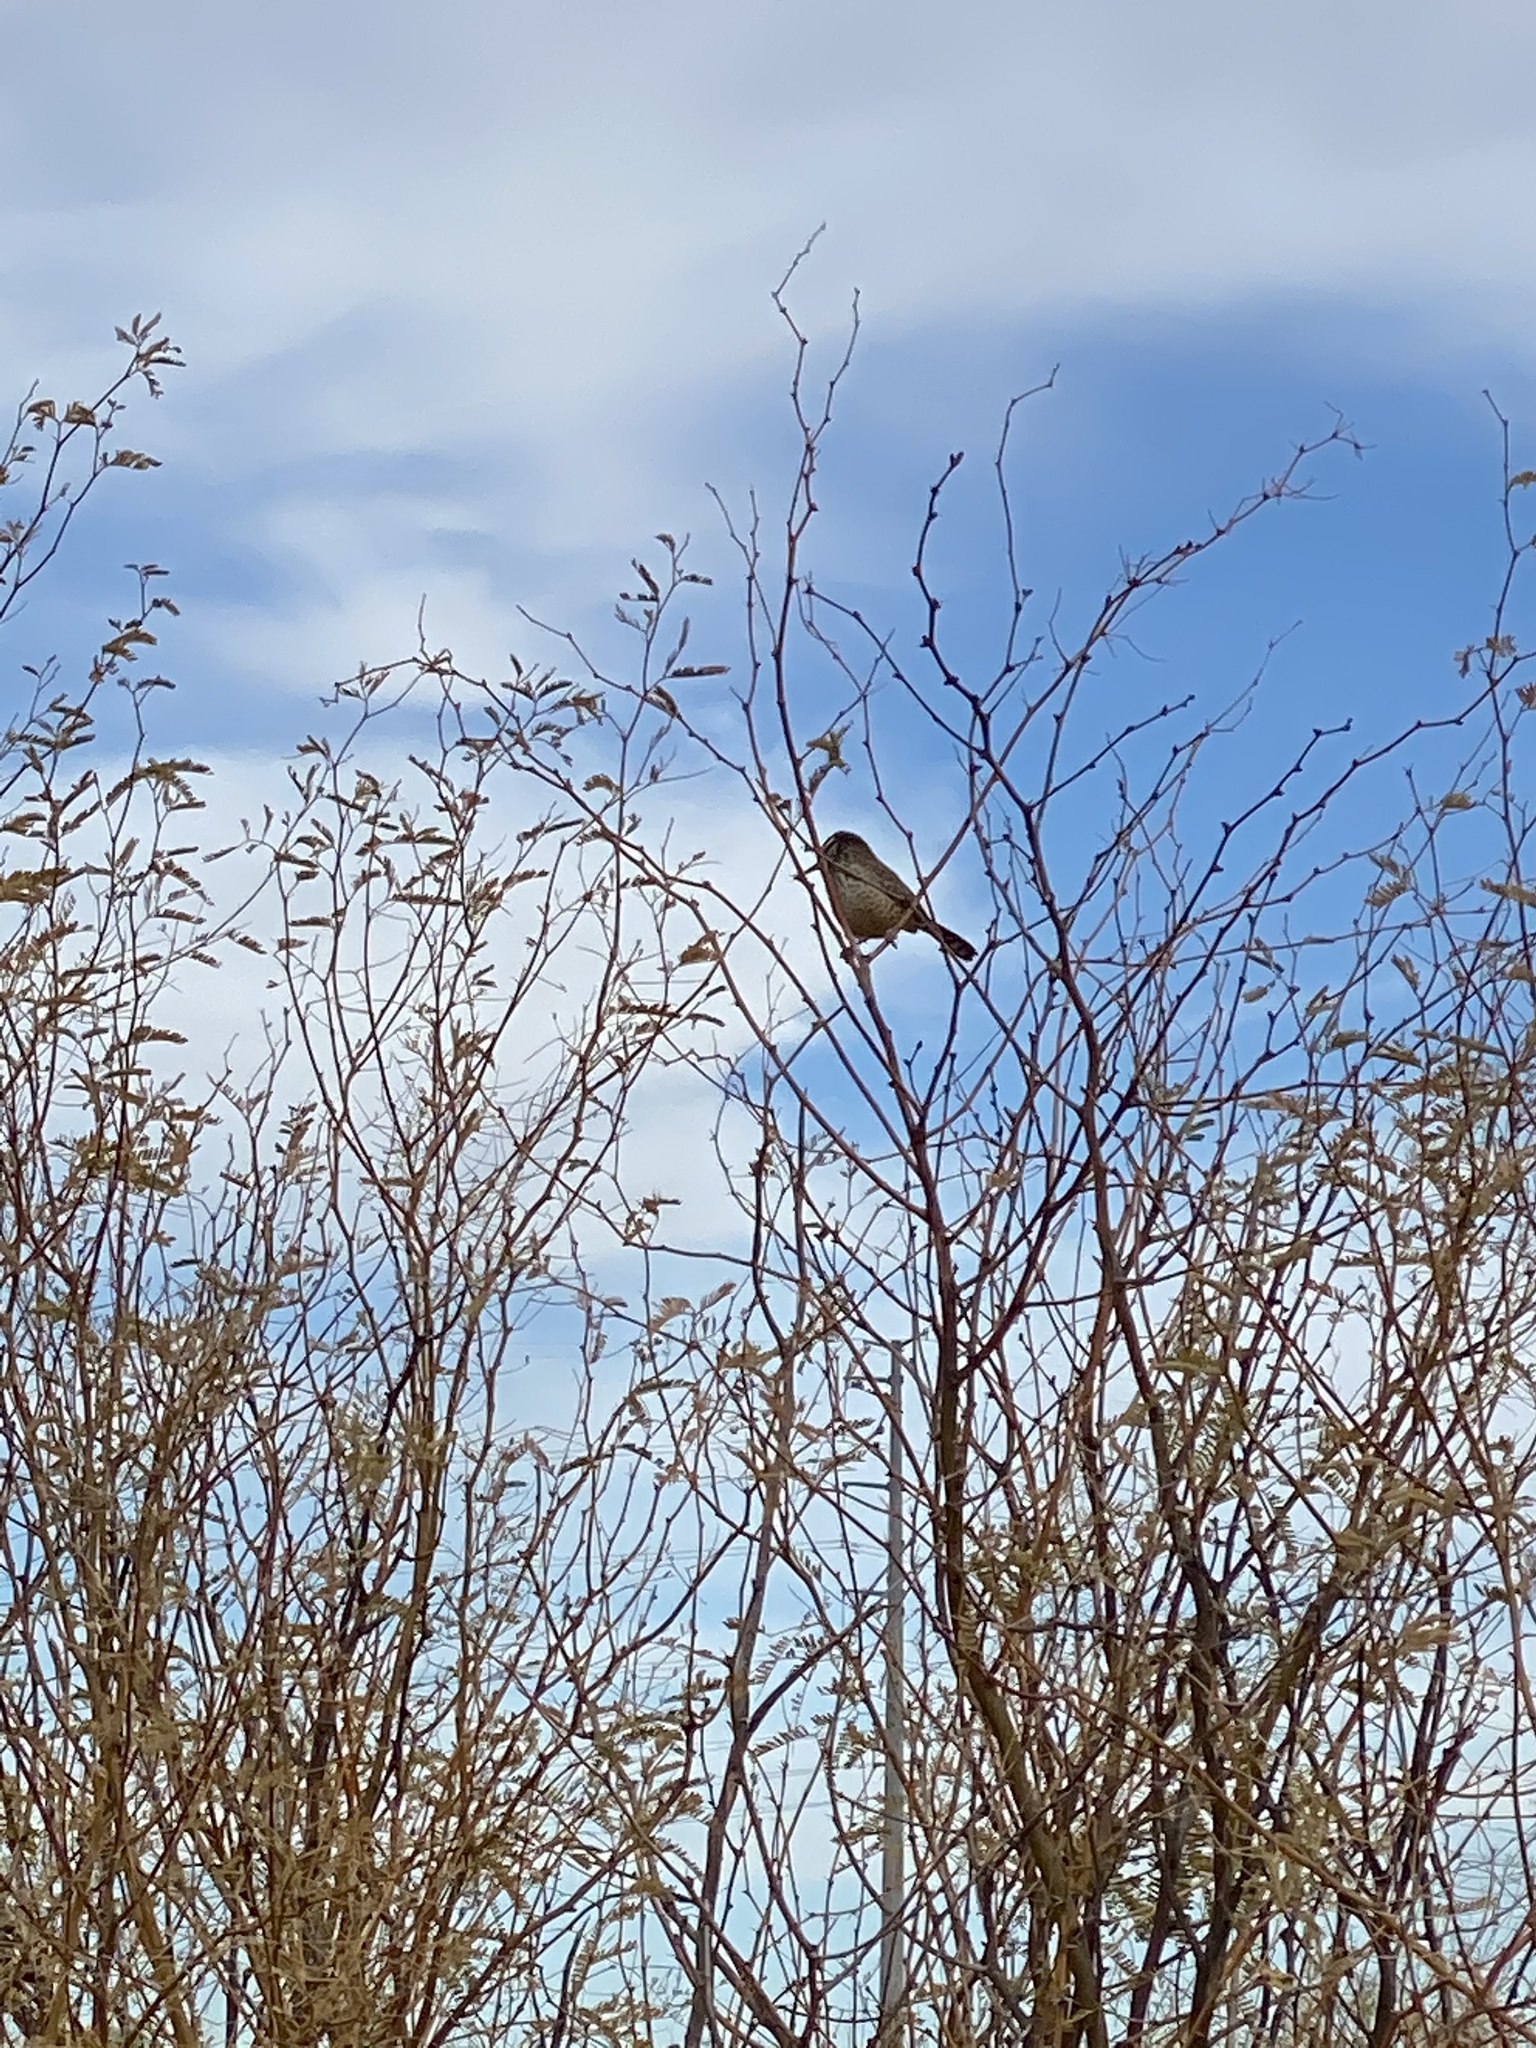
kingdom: Animalia
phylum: Chordata
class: Aves
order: Passeriformes
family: Troglodytidae
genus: Campylorhynchus
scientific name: Campylorhynchus brunneicapillus
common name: Cactus wren
